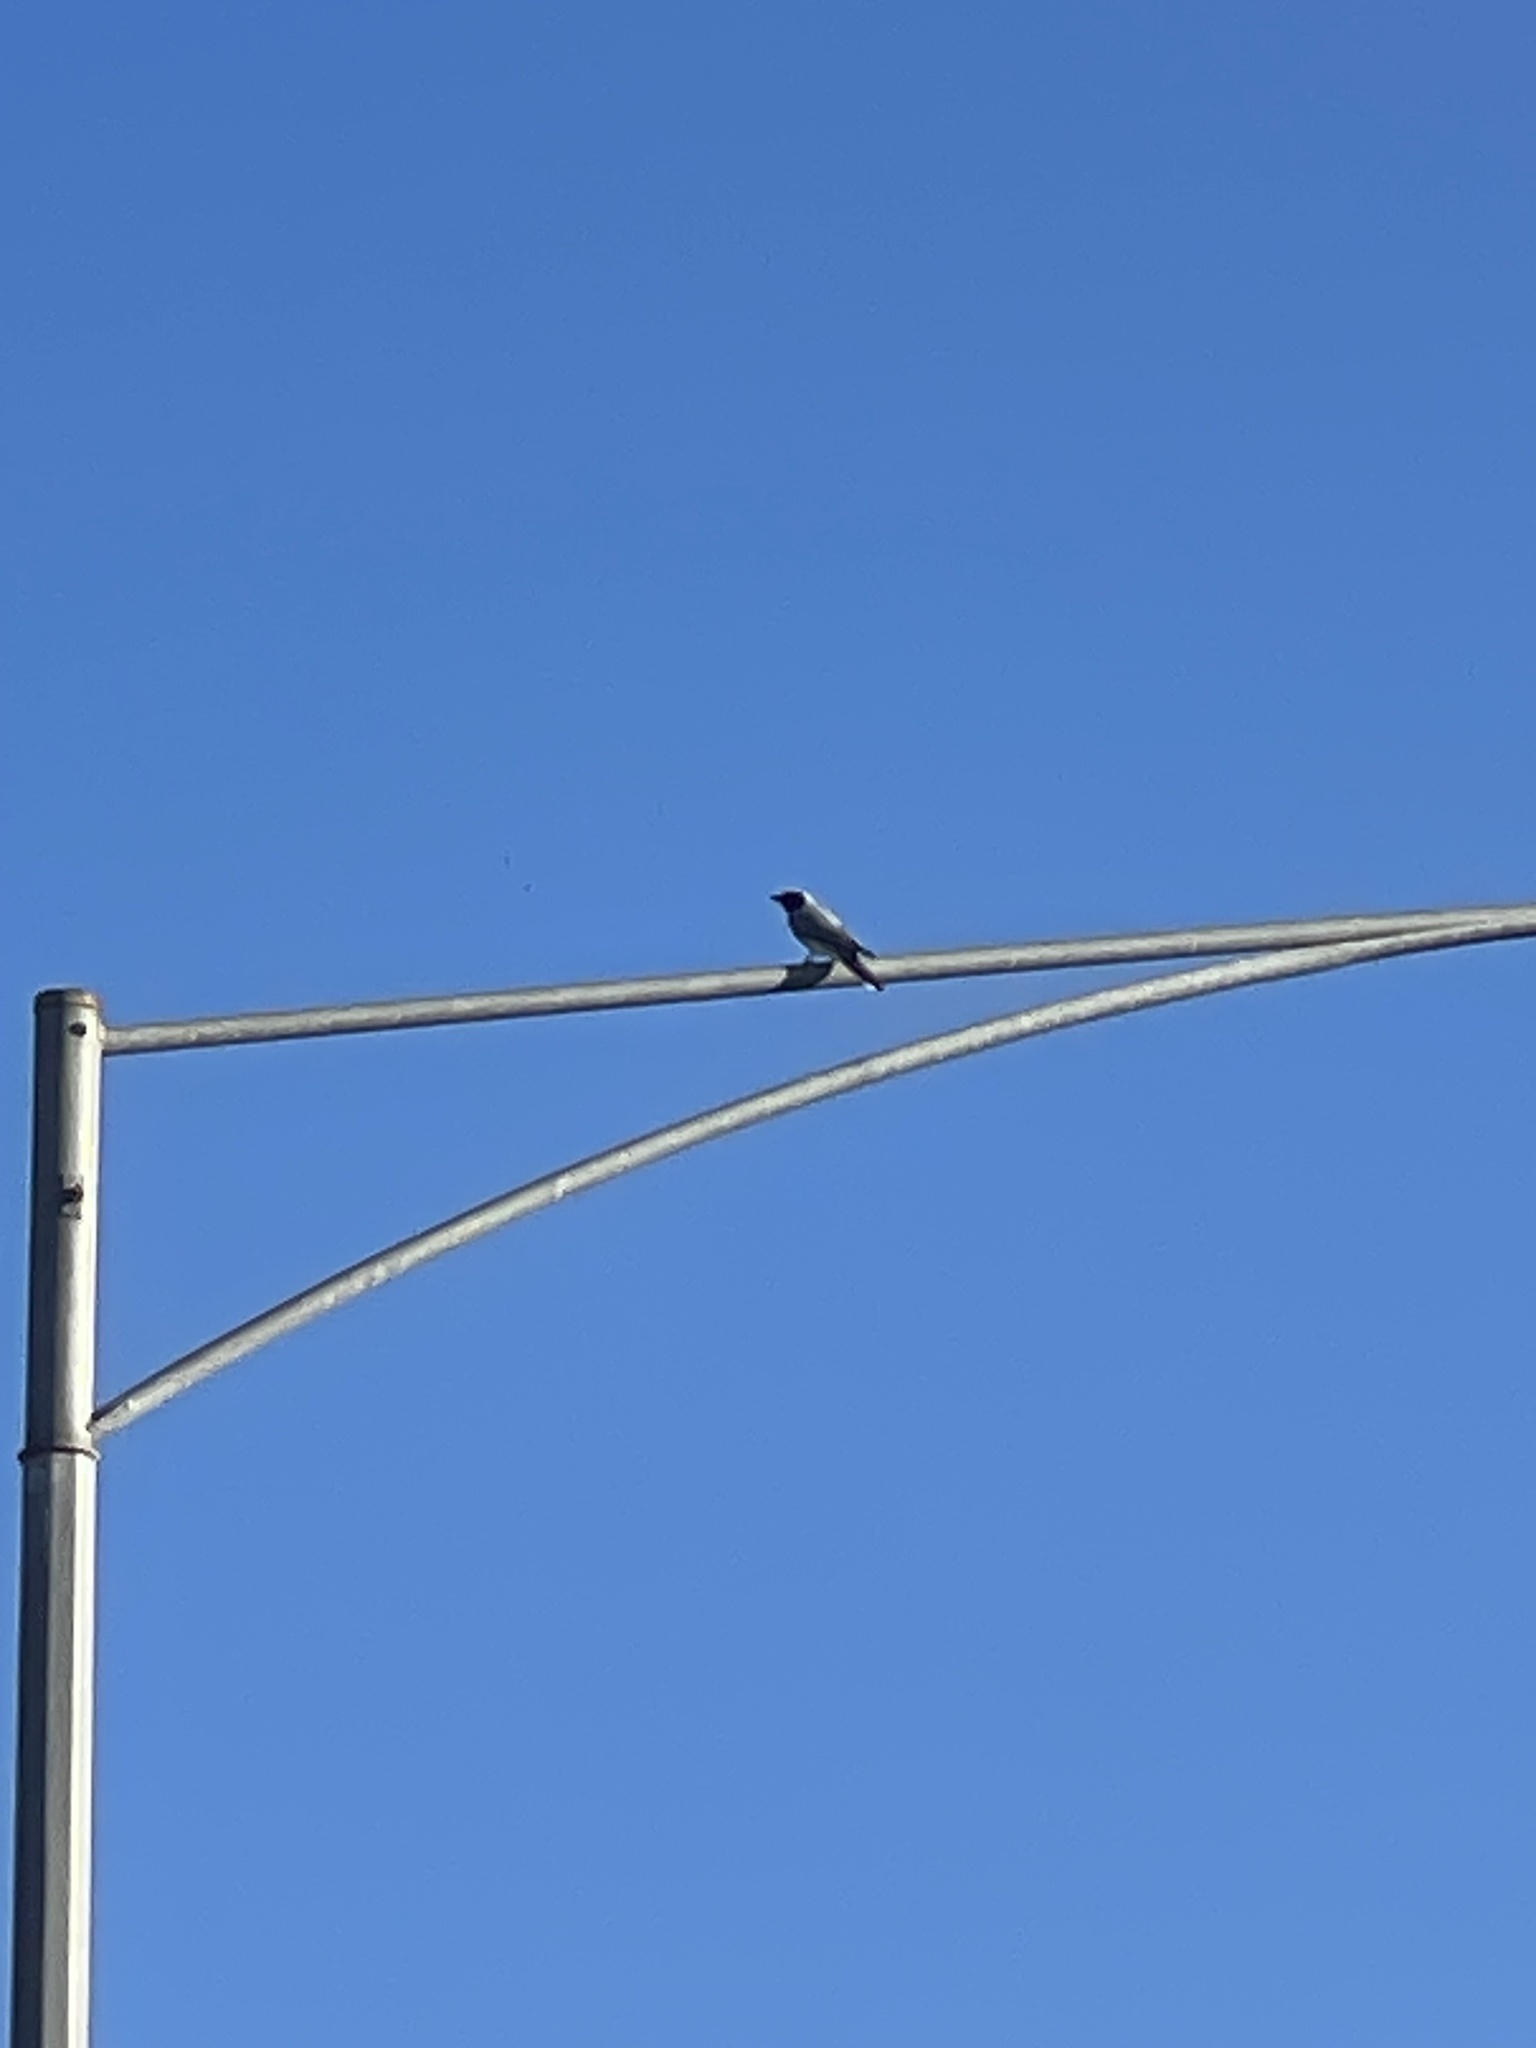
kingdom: Animalia
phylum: Chordata
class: Aves
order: Passeriformes
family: Campephagidae
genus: Coracina
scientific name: Coracina novaehollandiae
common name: Black-faced cuckooshrike
